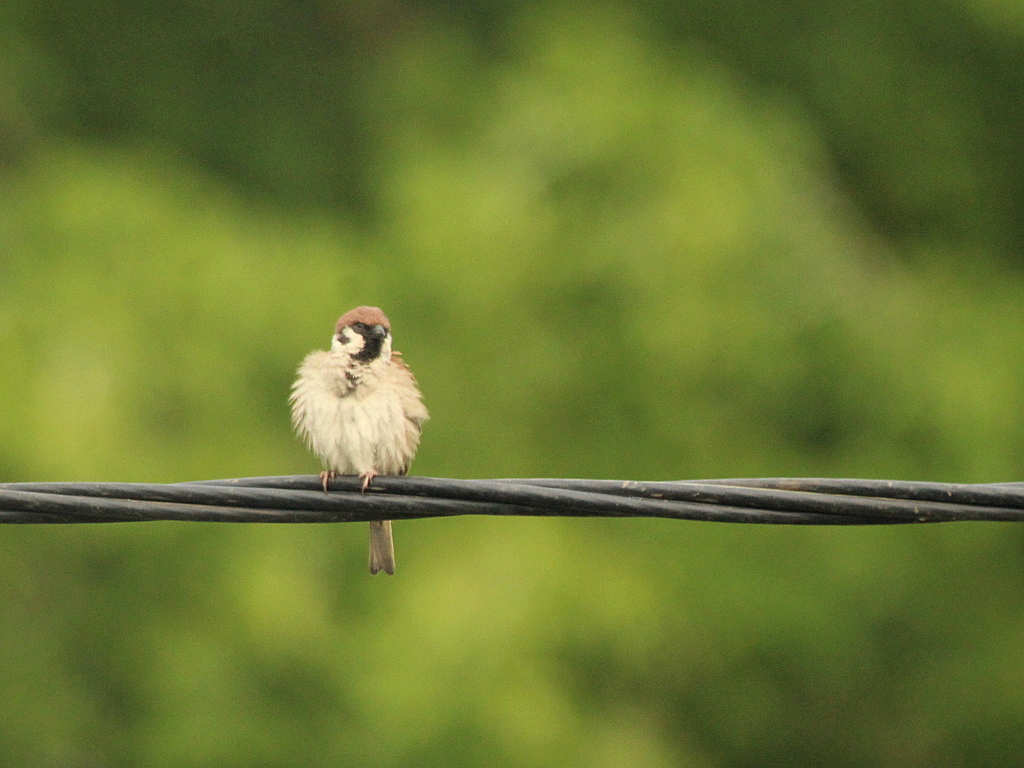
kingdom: Animalia
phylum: Chordata
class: Aves
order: Passeriformes
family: Passeridae
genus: Passer
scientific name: Passer montanus
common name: Eurasian tree sparrow
